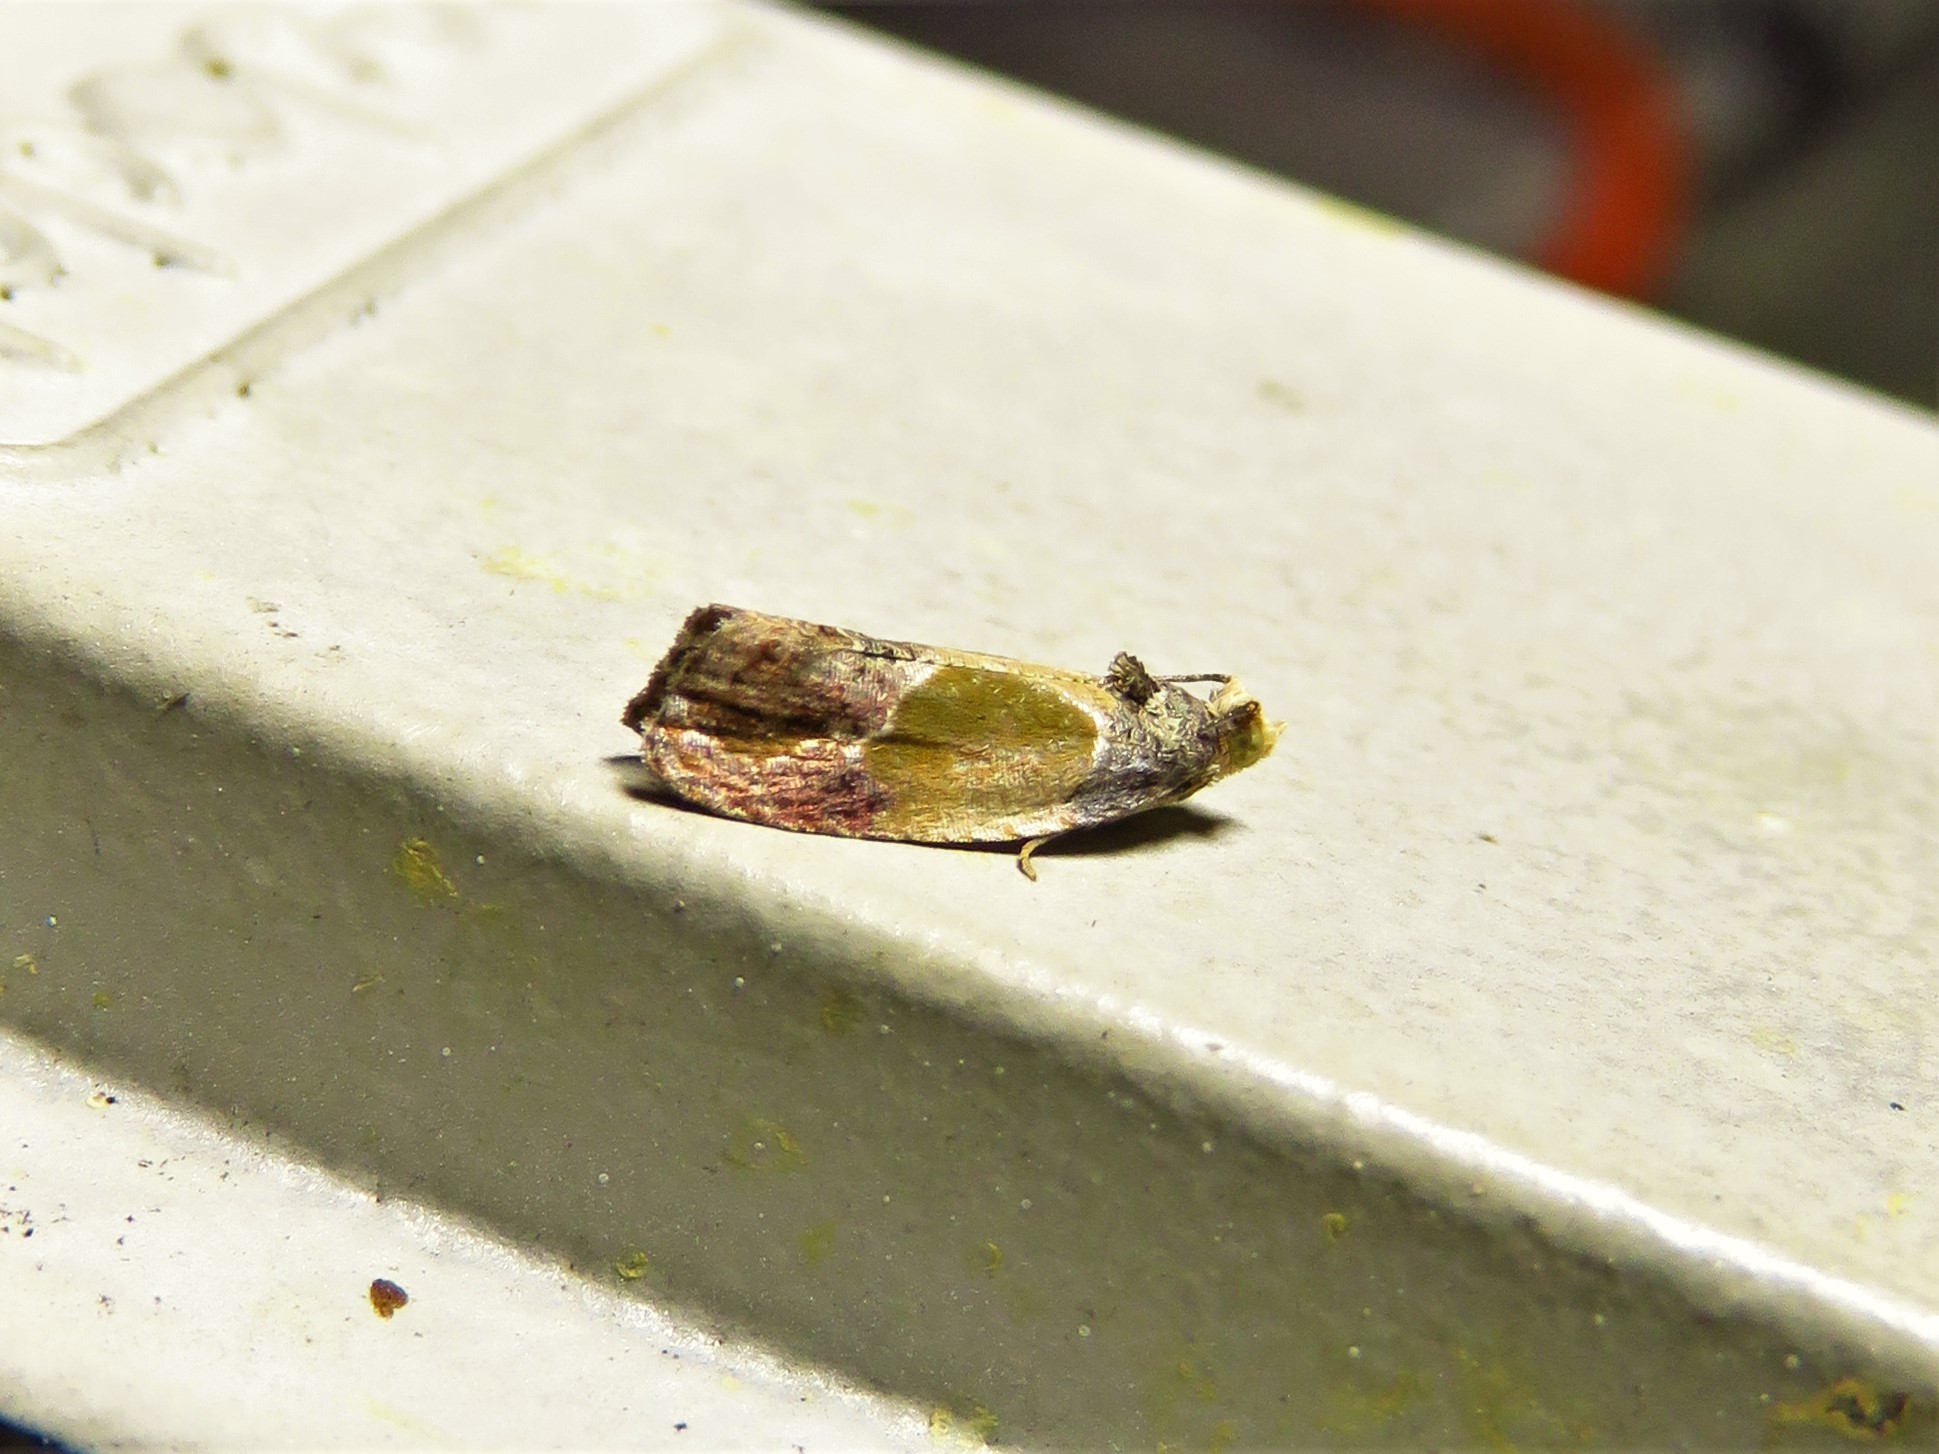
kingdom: Animalia
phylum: Arthropoda
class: Insecta
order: Lepidoptera
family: Tortricidae
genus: Eumarozia
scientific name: Eumarozia malachitana
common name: Sculptured moth
